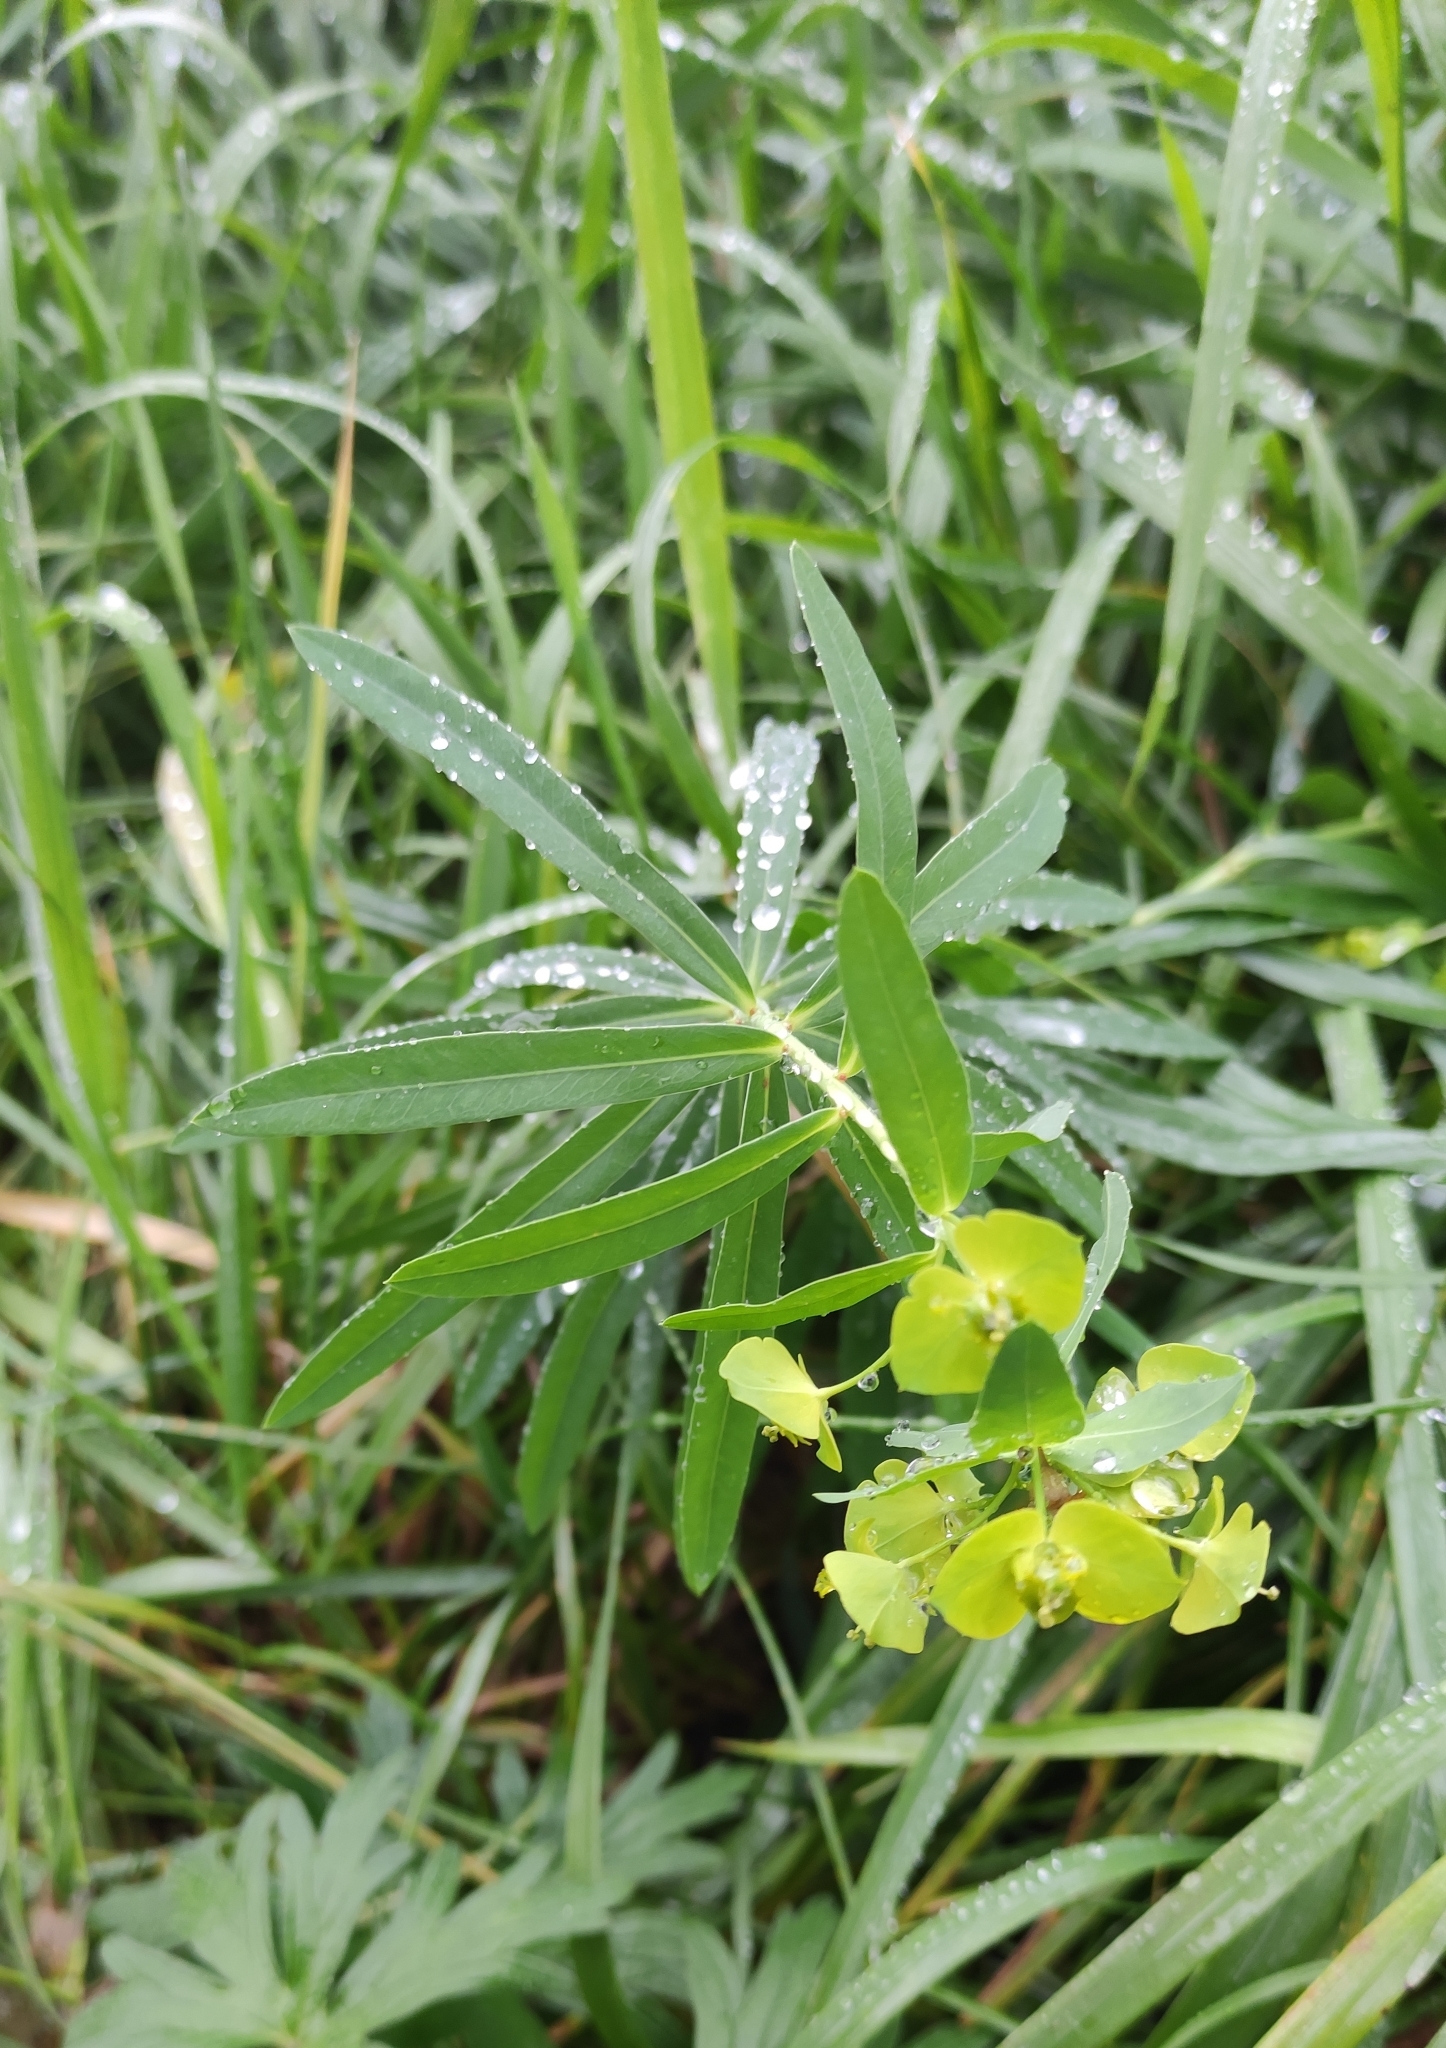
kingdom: Plantae
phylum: Tracheophyta
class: Magnoliopsida
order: Malpighiales
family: Euphorbiaceae
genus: Euphorbia
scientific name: Euphorbia virgata
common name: Leafy spurge
